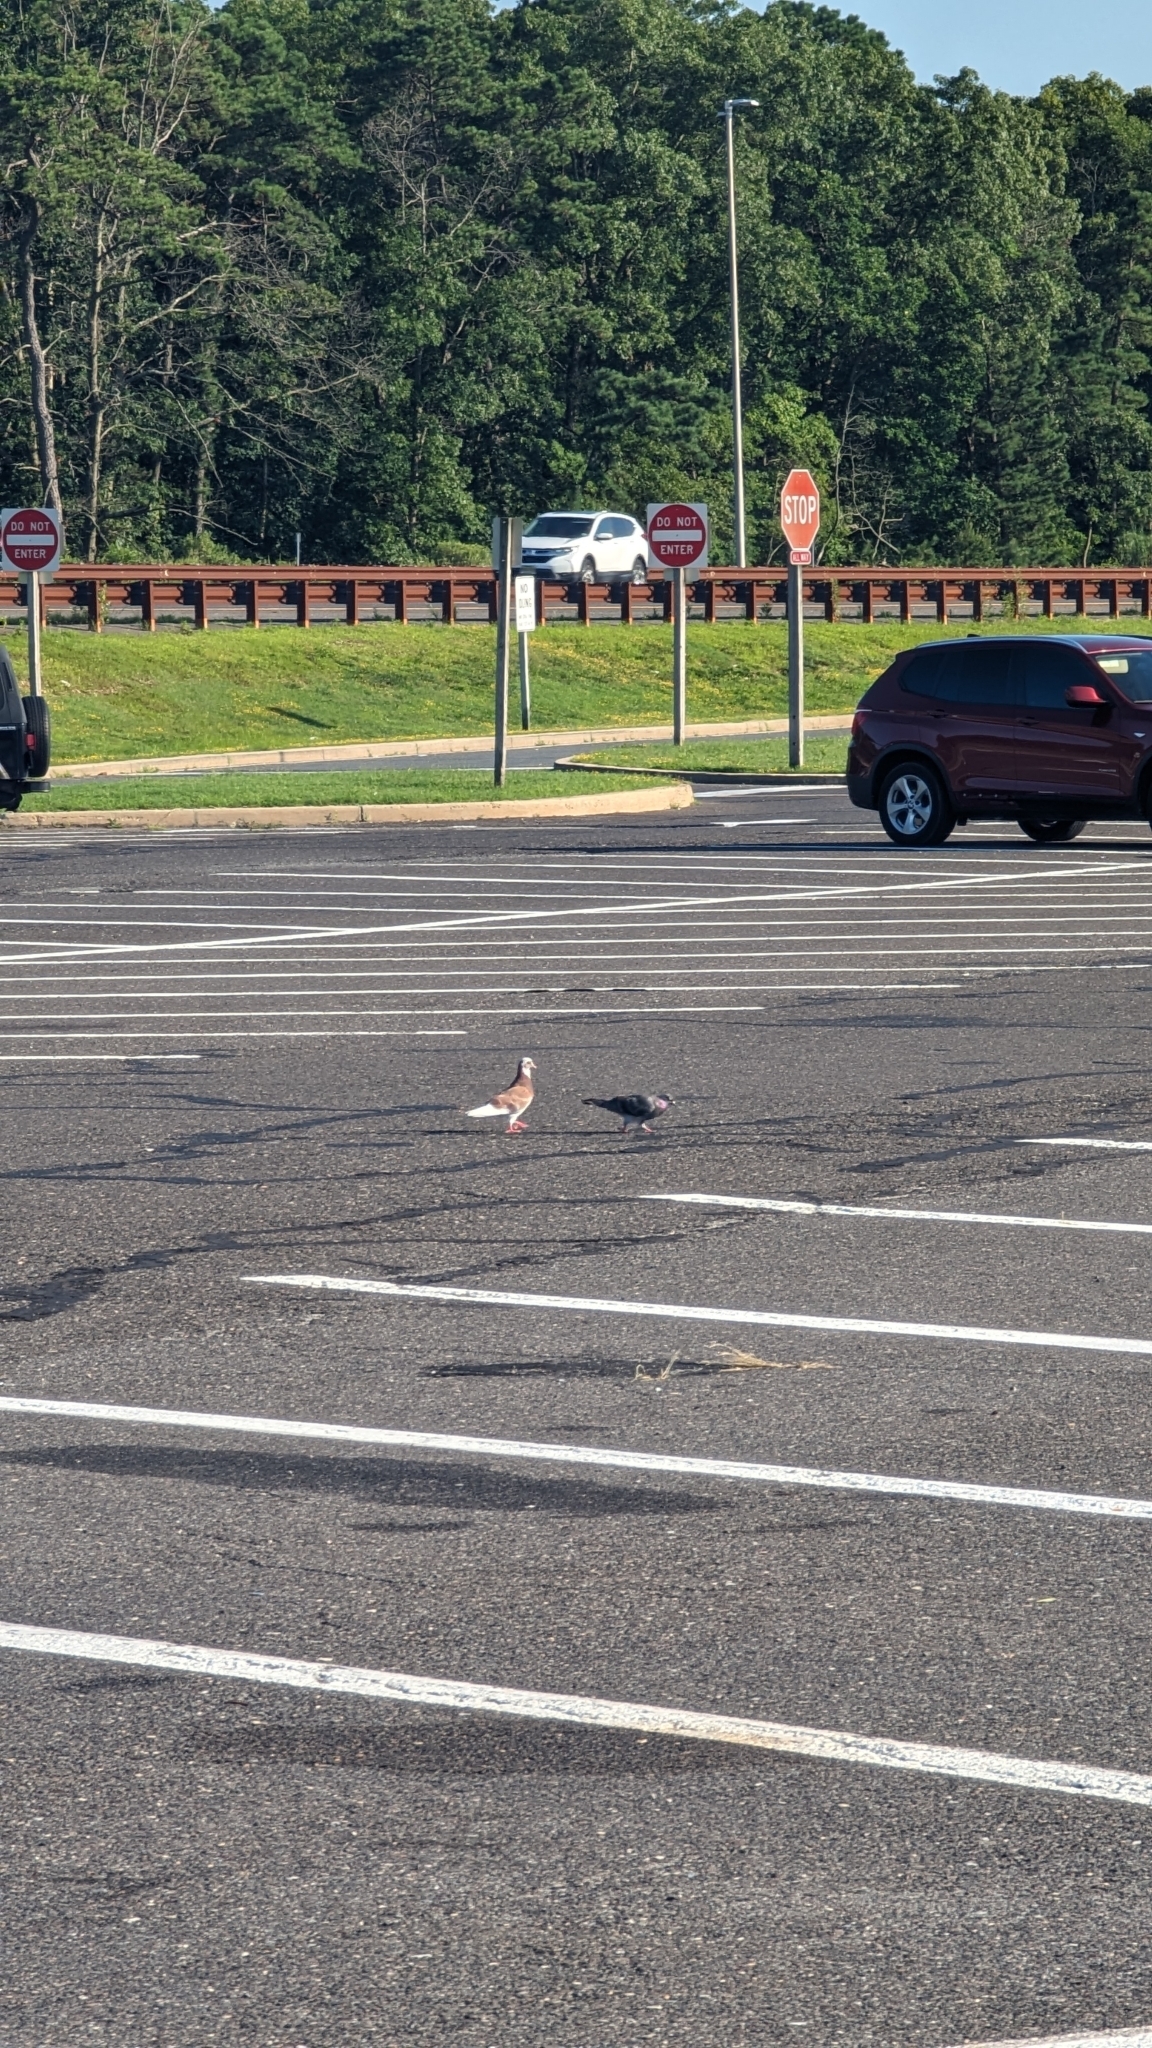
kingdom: Animalia
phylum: Chordata
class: Aves
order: Columbiformes
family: Columbidae
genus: Columba
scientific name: Columba livia
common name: Rock pigeon
